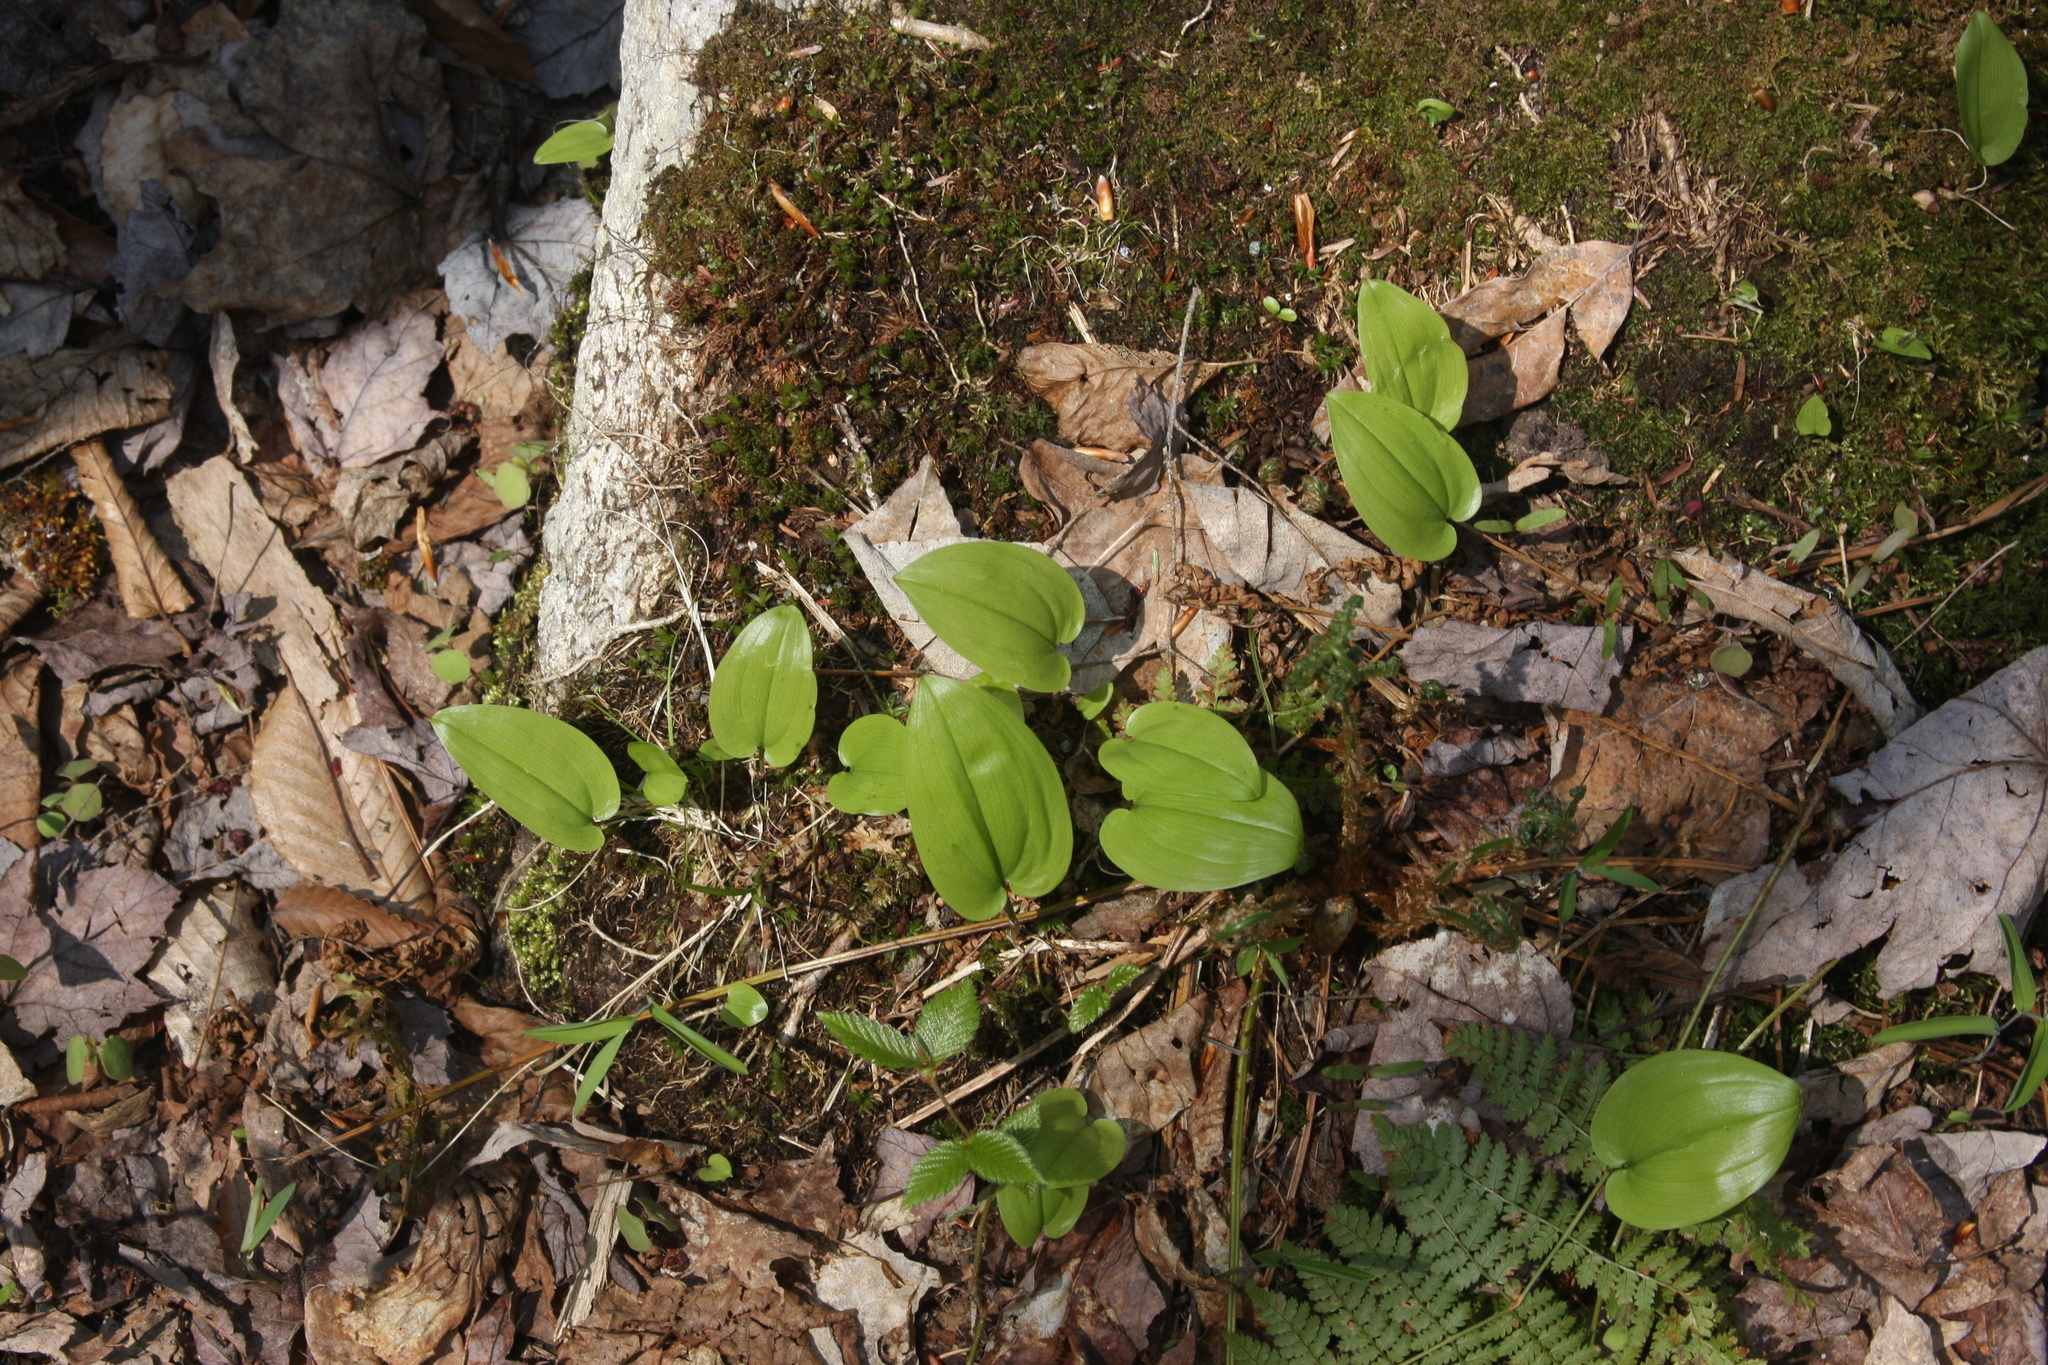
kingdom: Plantae
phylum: Tracheophyta
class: Liliopsida
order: Asparagales
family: Asparagaceae
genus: Maianthemum
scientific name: Maianthemum canadense
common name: False lily-of-the-valley
